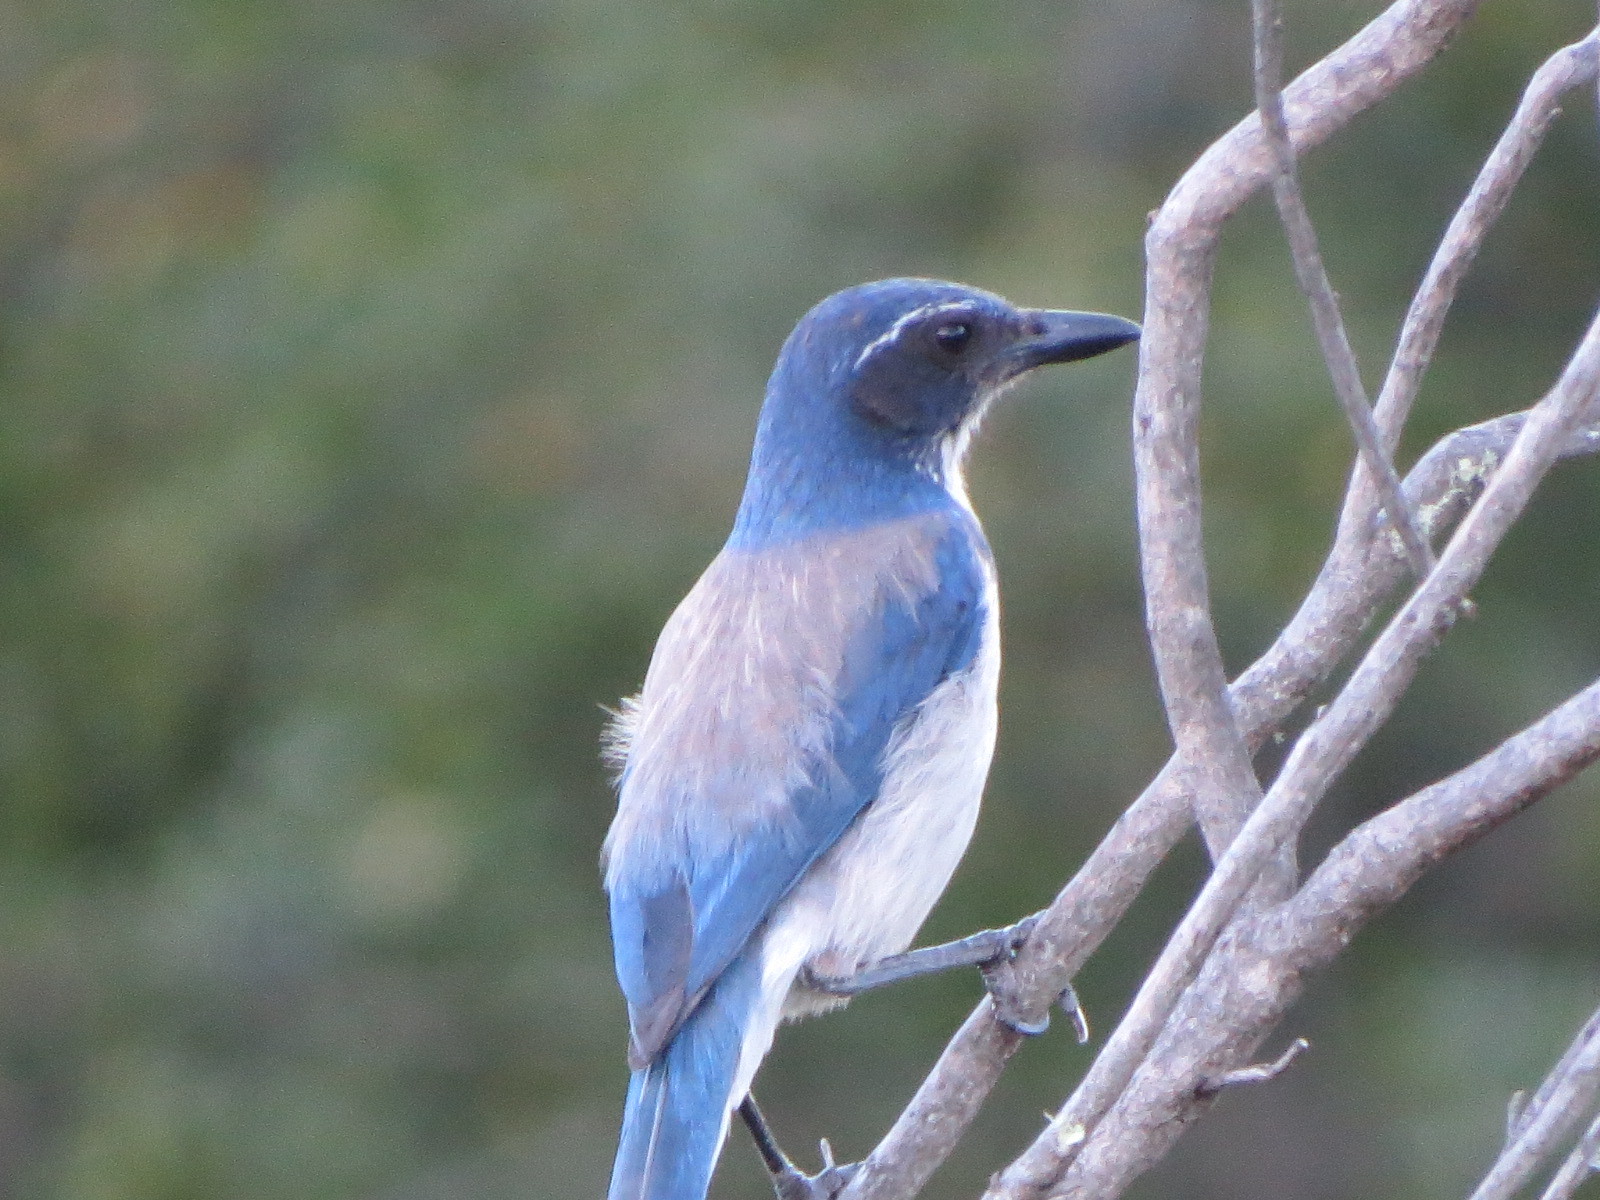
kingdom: Animalia
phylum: Chordata
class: Aves
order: Passeriformes
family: Corvidae
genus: Aphelocoma
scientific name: Aphelocoma californica
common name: California scrub-jay
